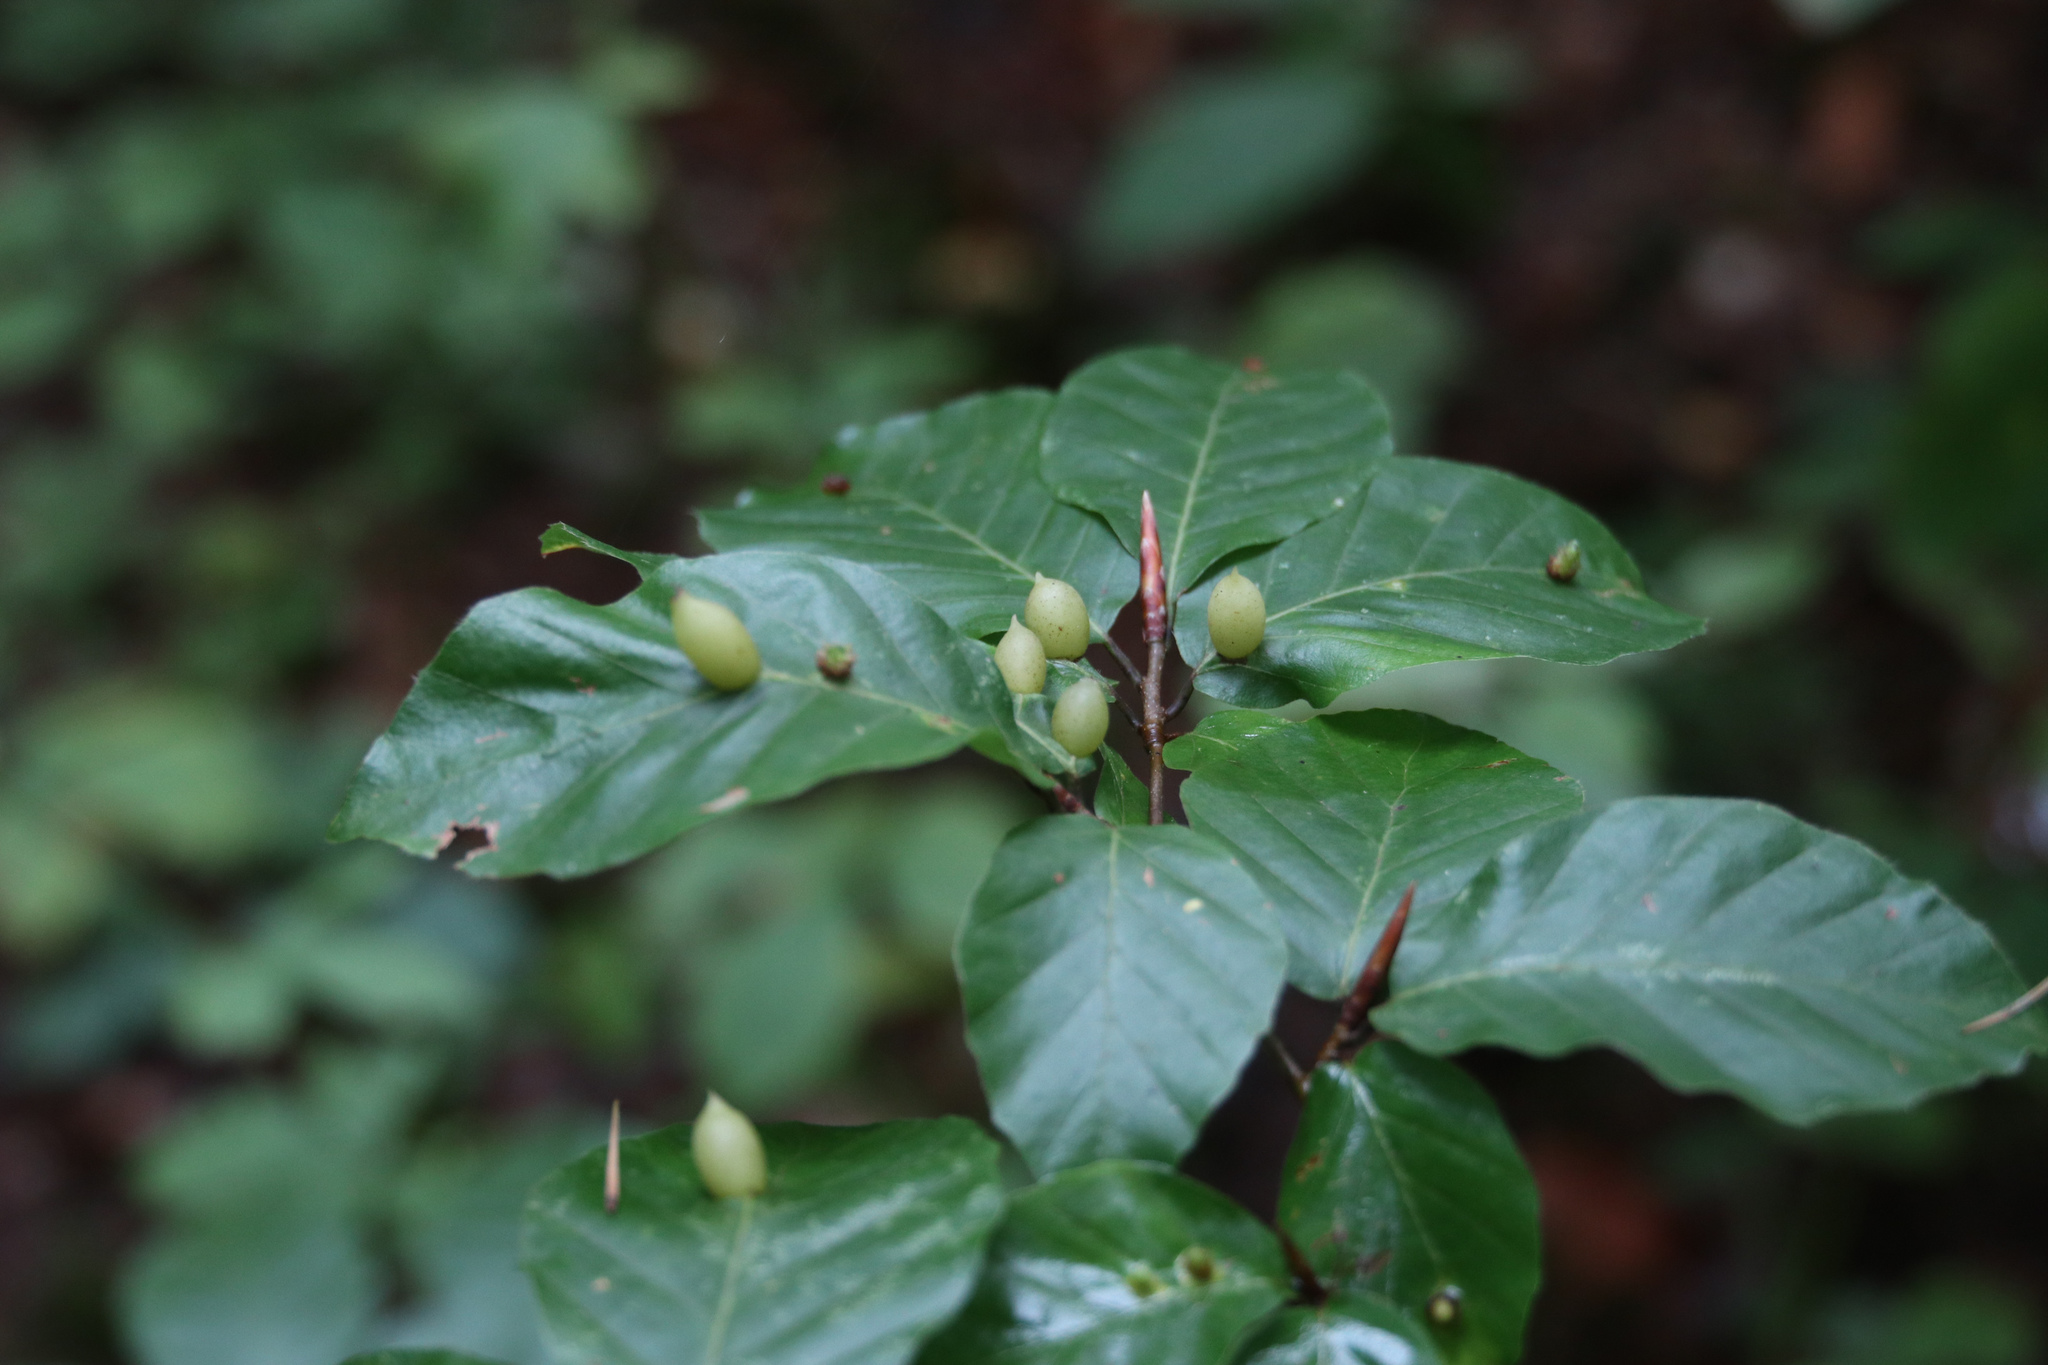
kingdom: Animalia
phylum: Arthropoda
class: Insecta
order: Diptera
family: Cecidomyiidae
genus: Mikiola
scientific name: Mikiola fagi
